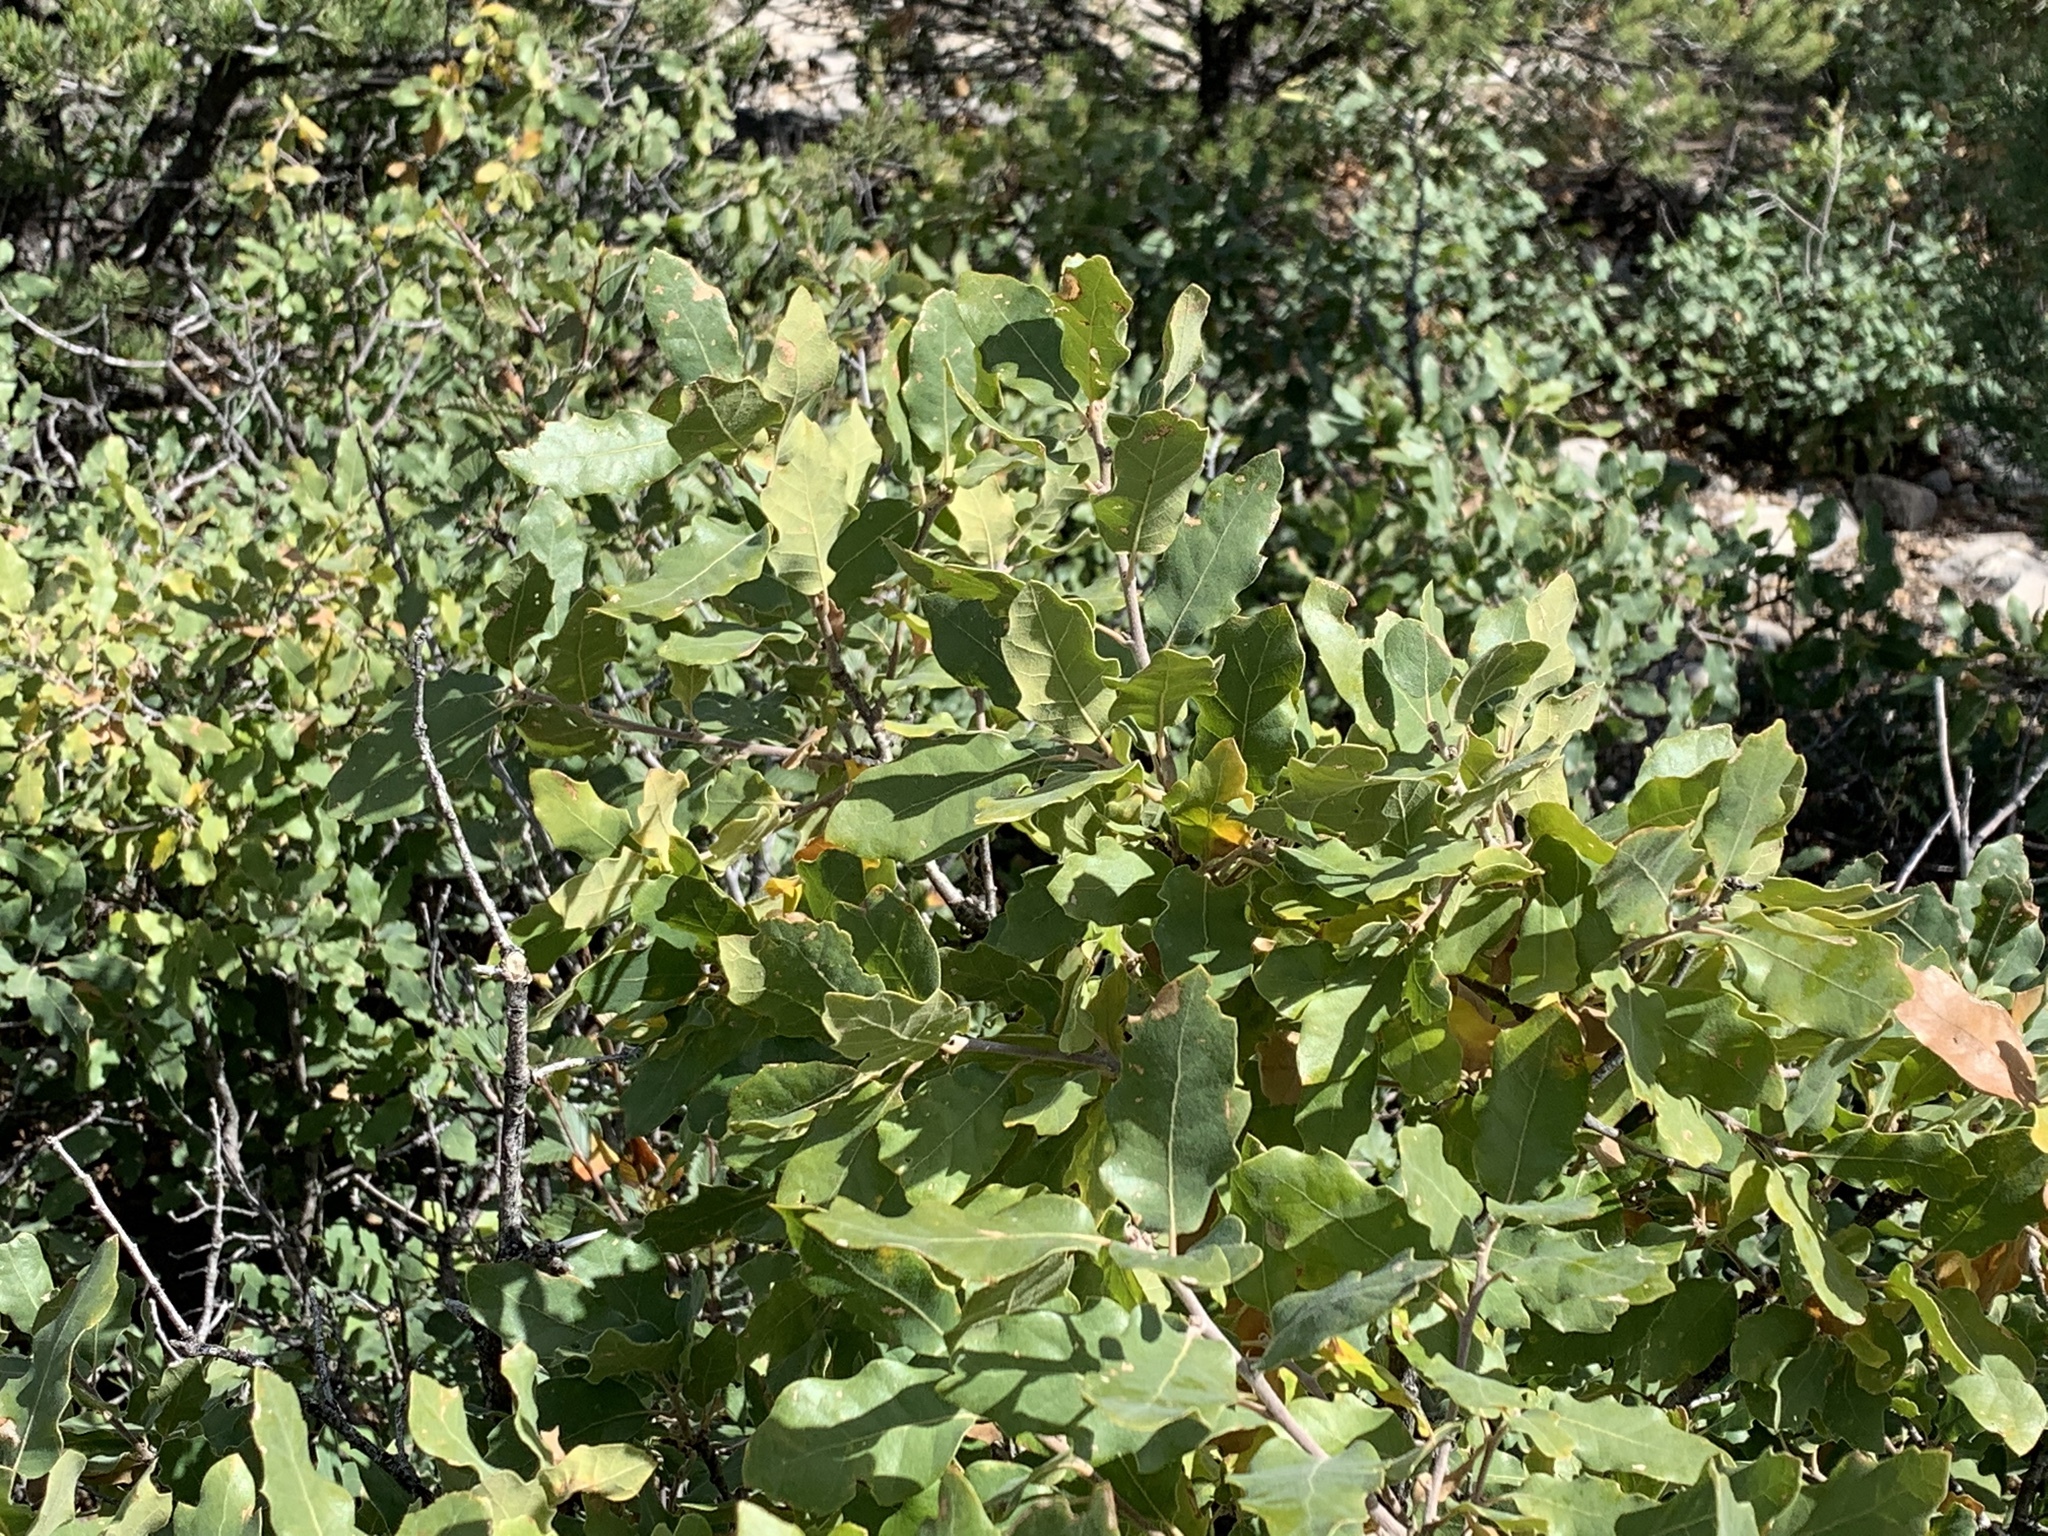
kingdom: Plantae
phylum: Tracheophyta
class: Magnoliopsida
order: Fagales
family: Fagaceae
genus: Quercus
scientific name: Quercus undulata
